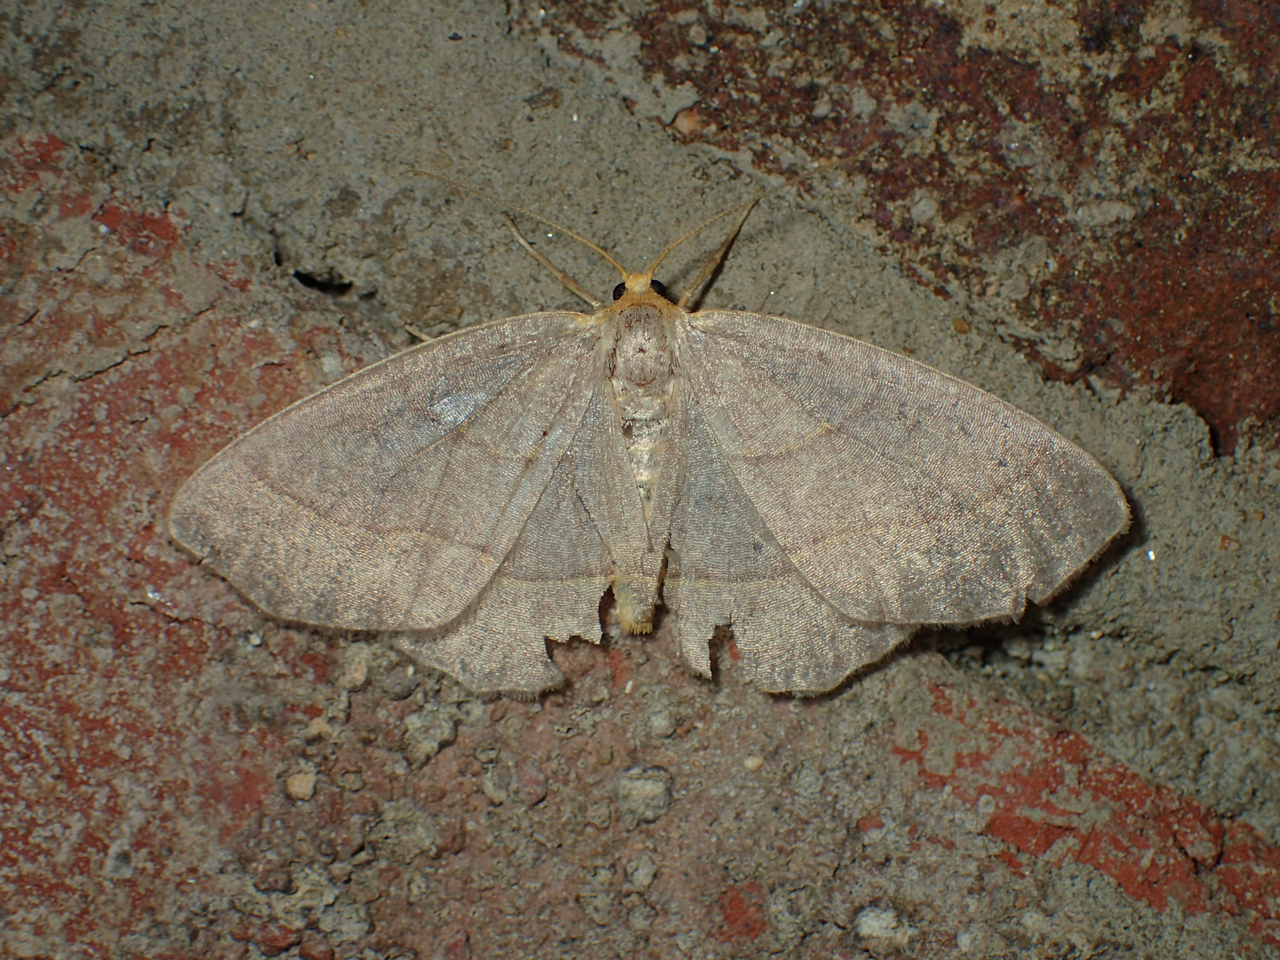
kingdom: Animalia
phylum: Arthropoda
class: Insecta
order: Lepidoptera
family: Geometridae
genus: Lambdina
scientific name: Lambdina fervidaria
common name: Curve-lined looper moth
